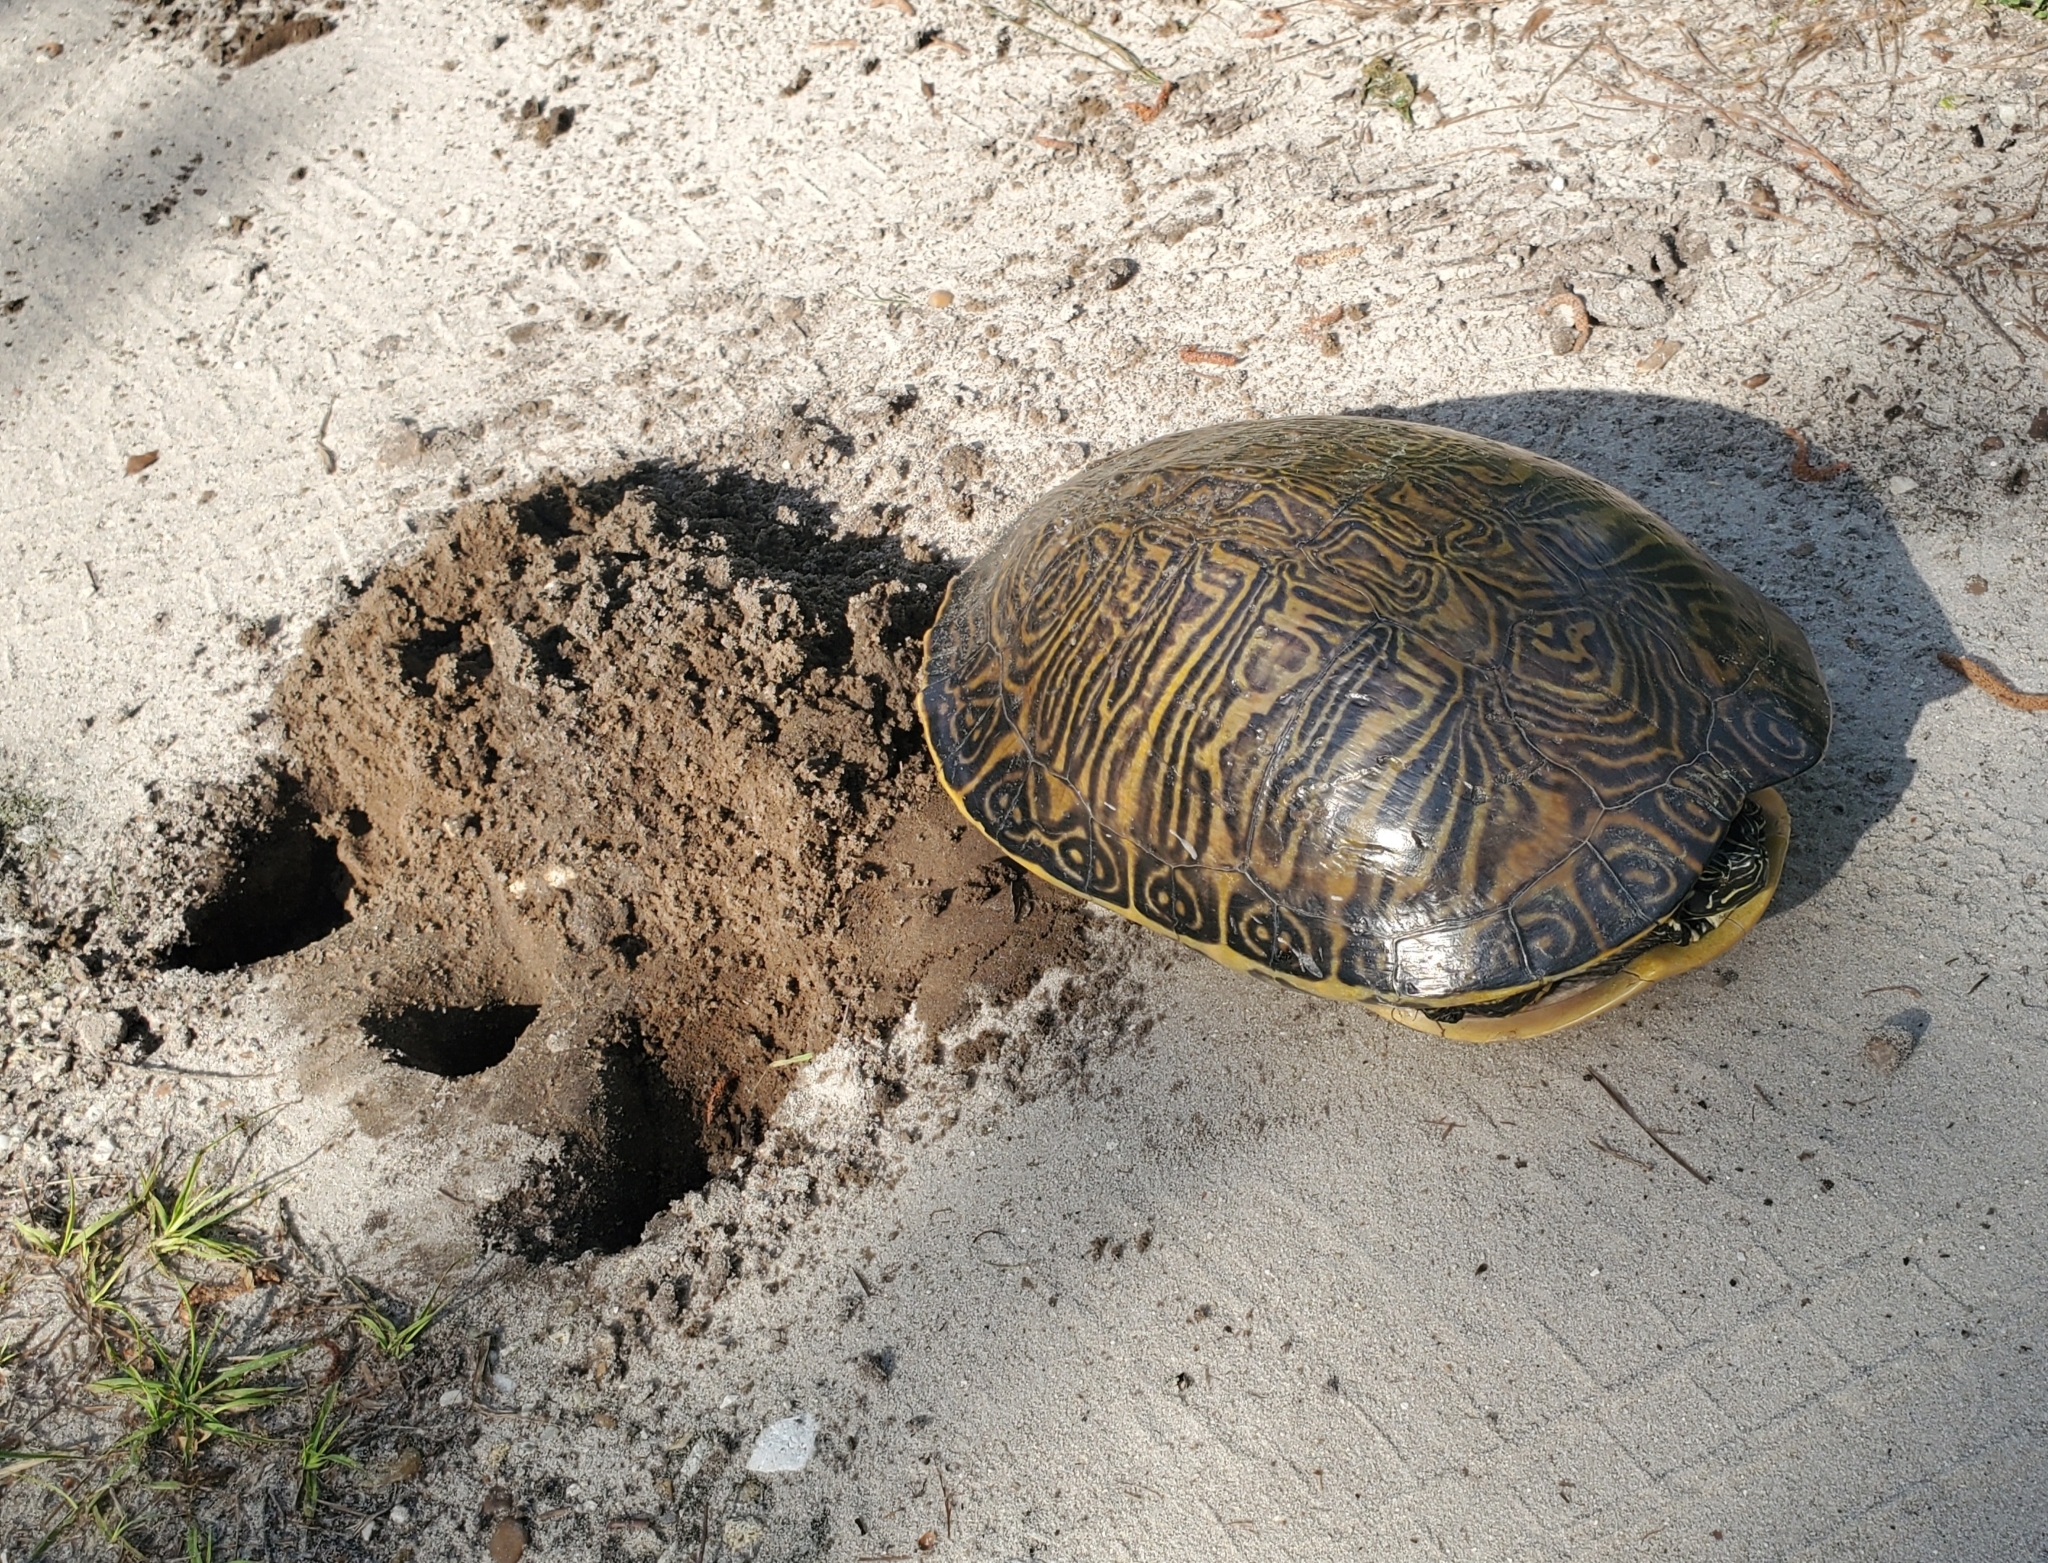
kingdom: Animalia
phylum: Chordata
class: Testudines
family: Emydidae
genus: Pseudemys
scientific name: Pseudemys peninsularis
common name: Peninsula cooter
